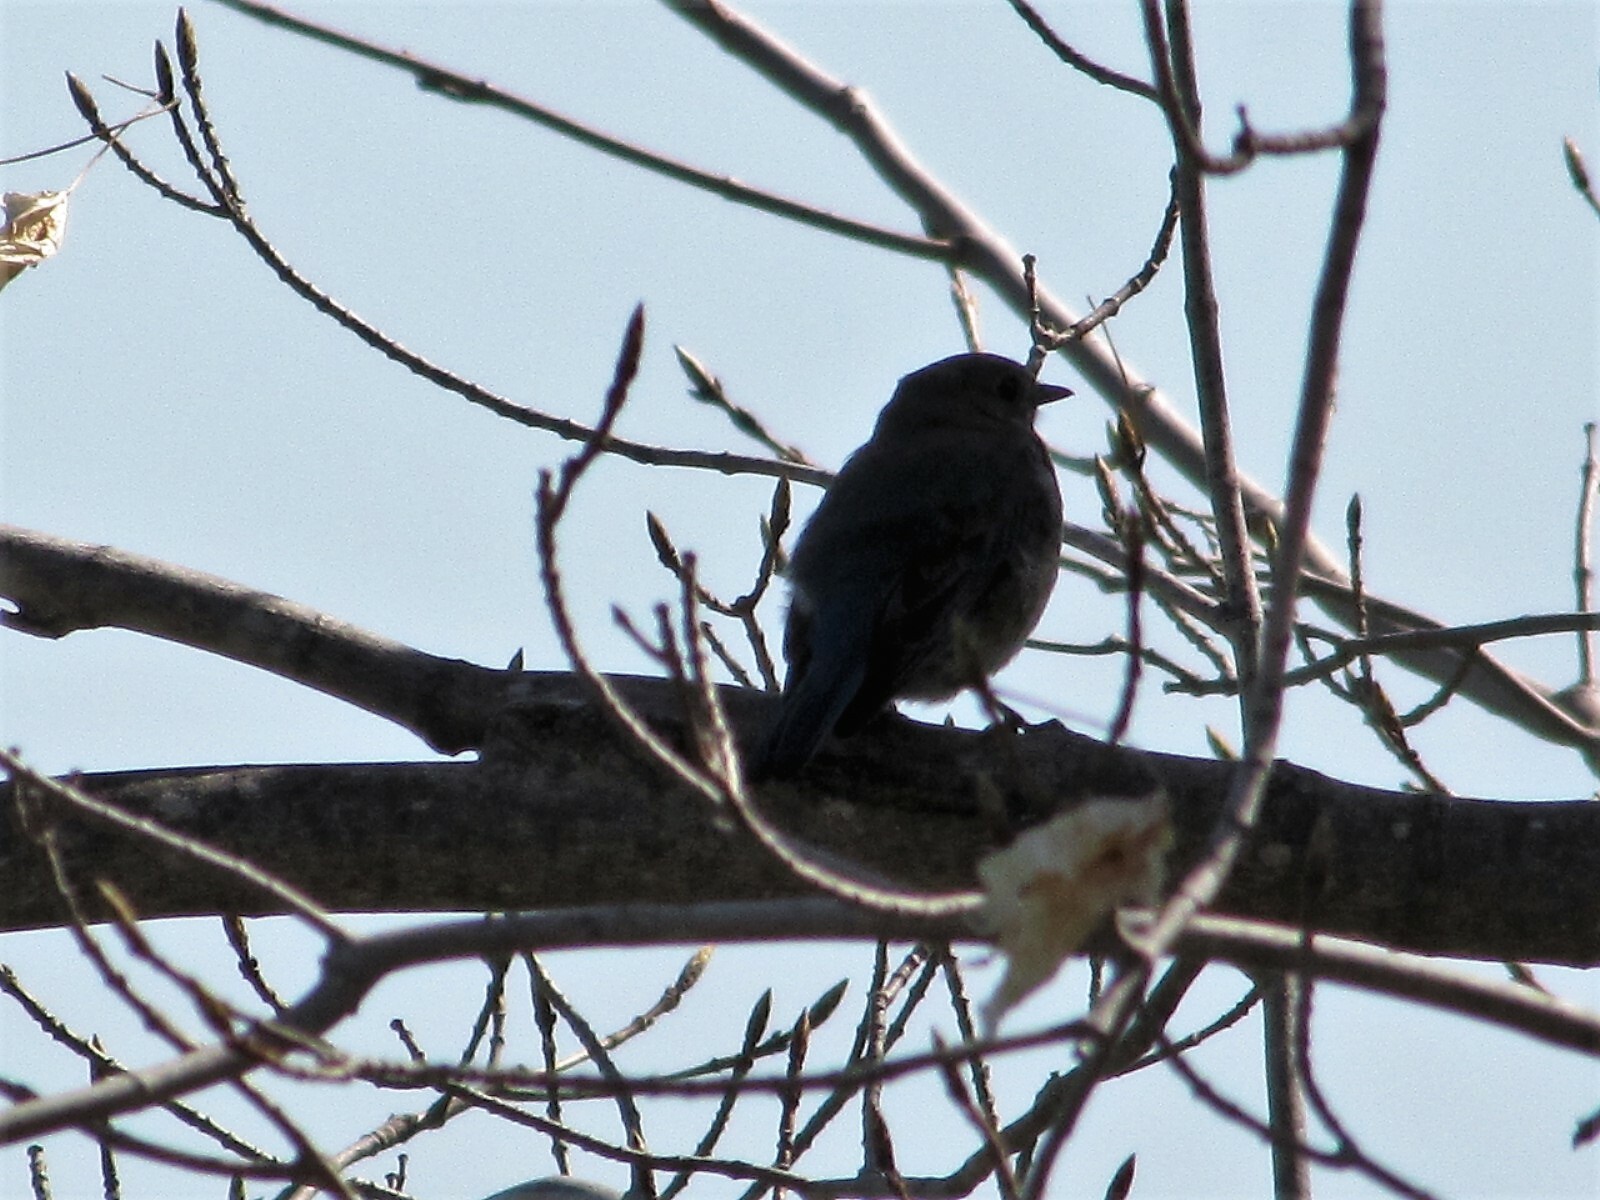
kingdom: Animalia
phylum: Chordata
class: Aves
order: Passeriformes
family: Turdidae
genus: Sialia
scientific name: Sialia sialis
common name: Eastern bluebird
